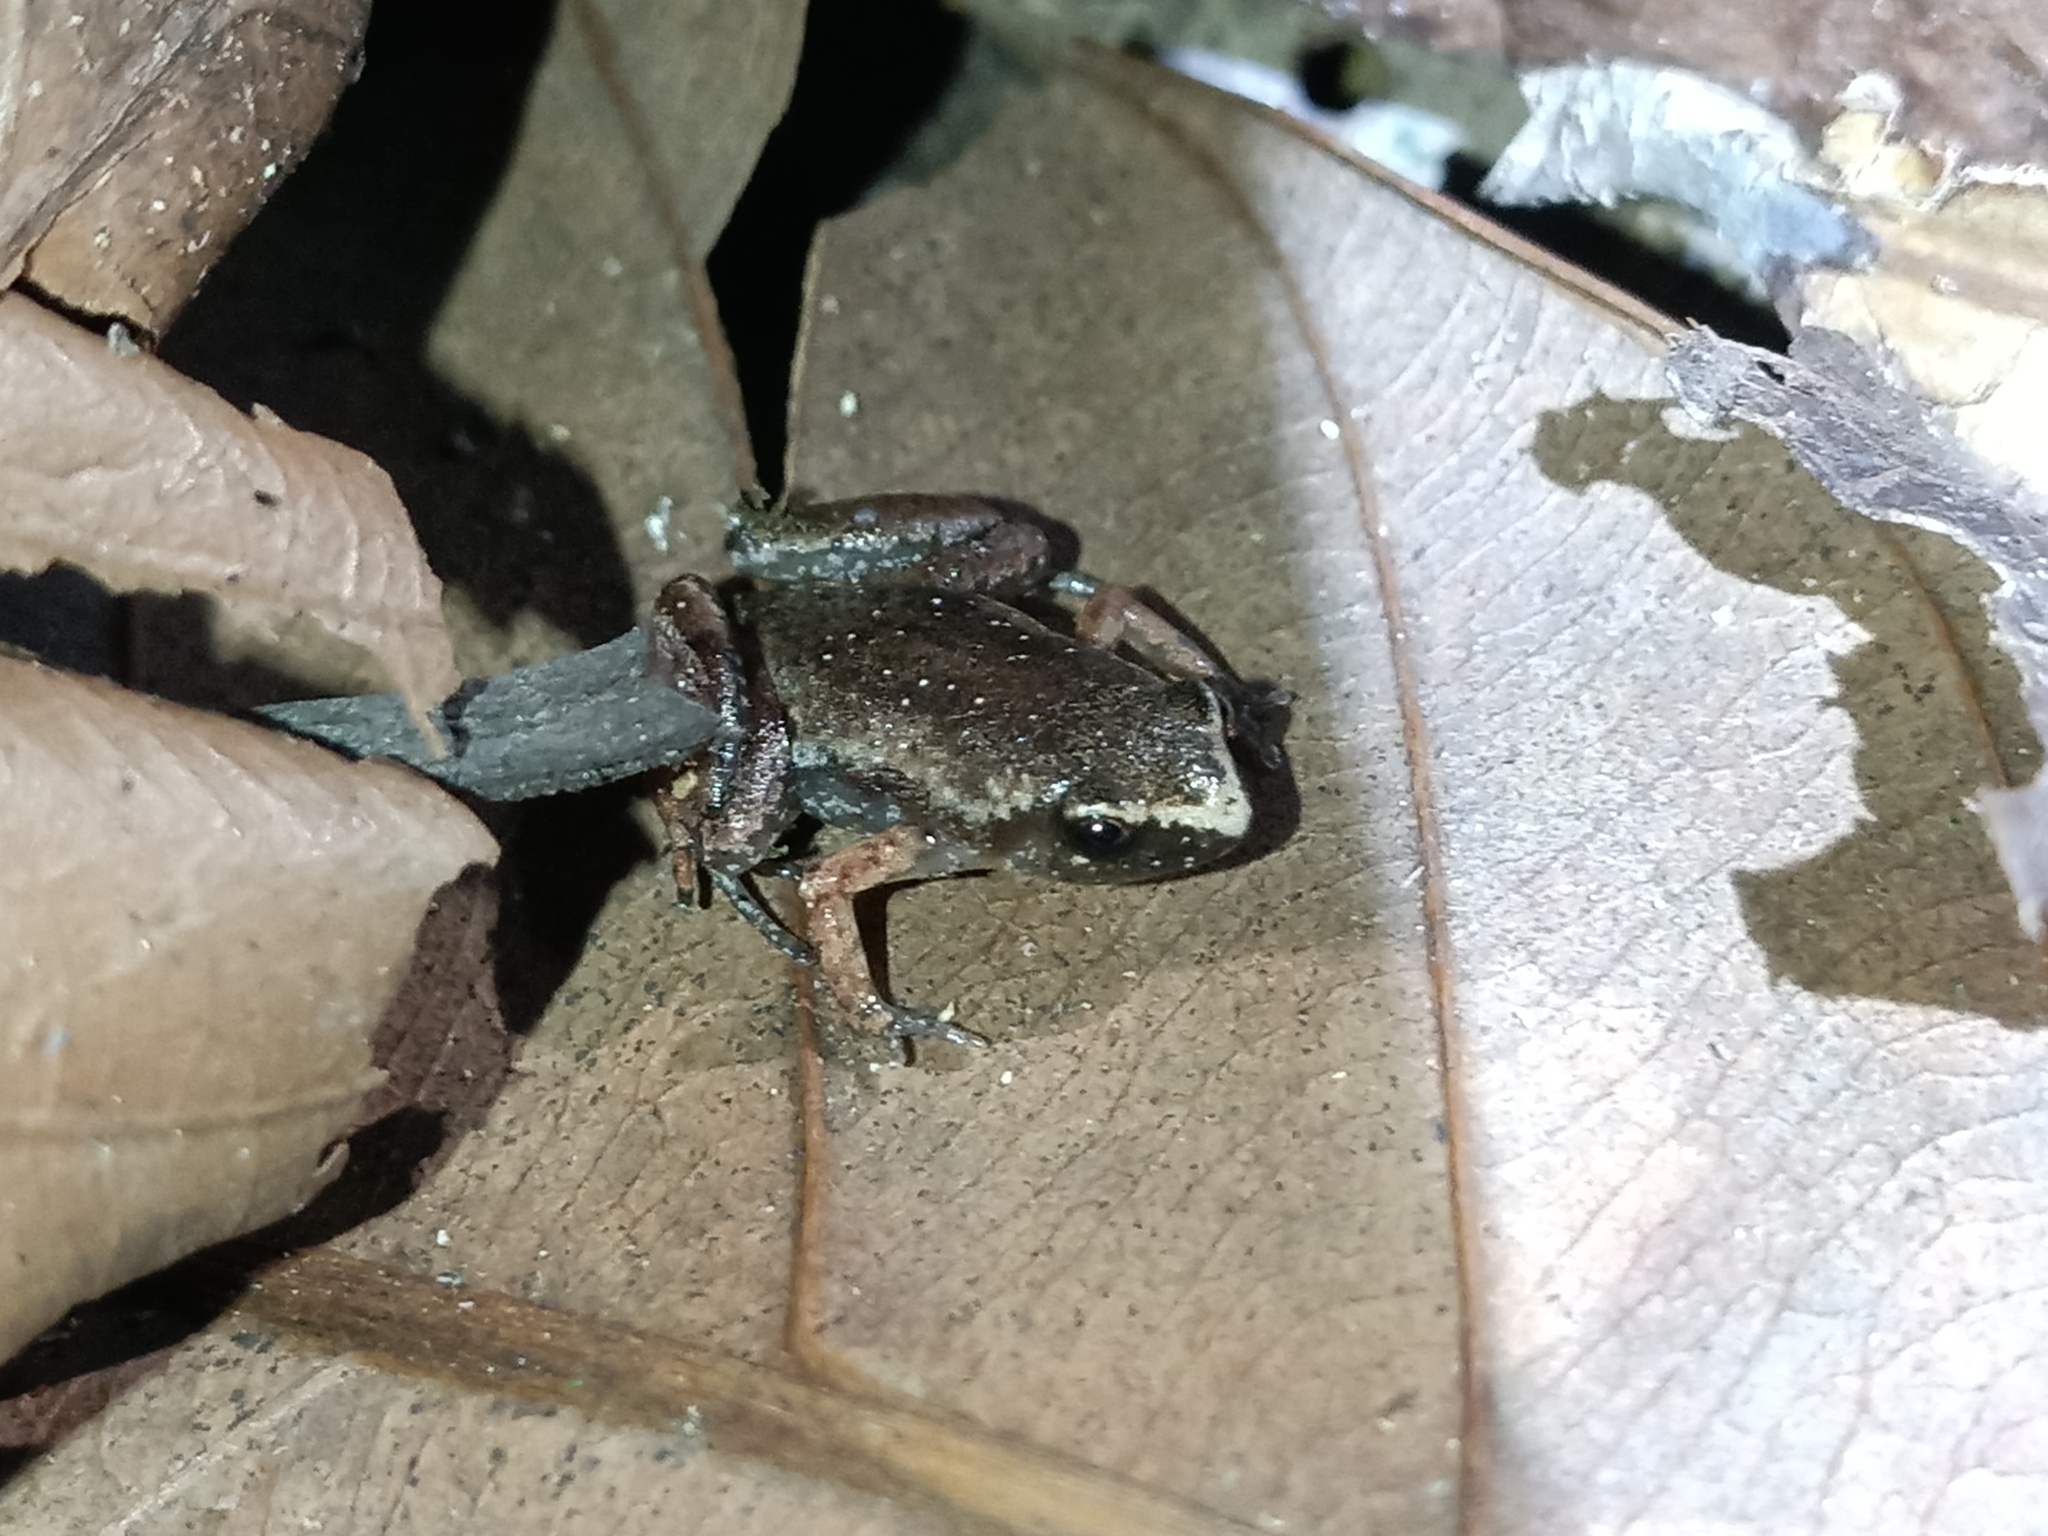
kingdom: Animalia
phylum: Chordata
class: Amphibia
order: Anura
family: Microhylidae
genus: Chiasmocleis
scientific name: Chiasmocleis haddadi
